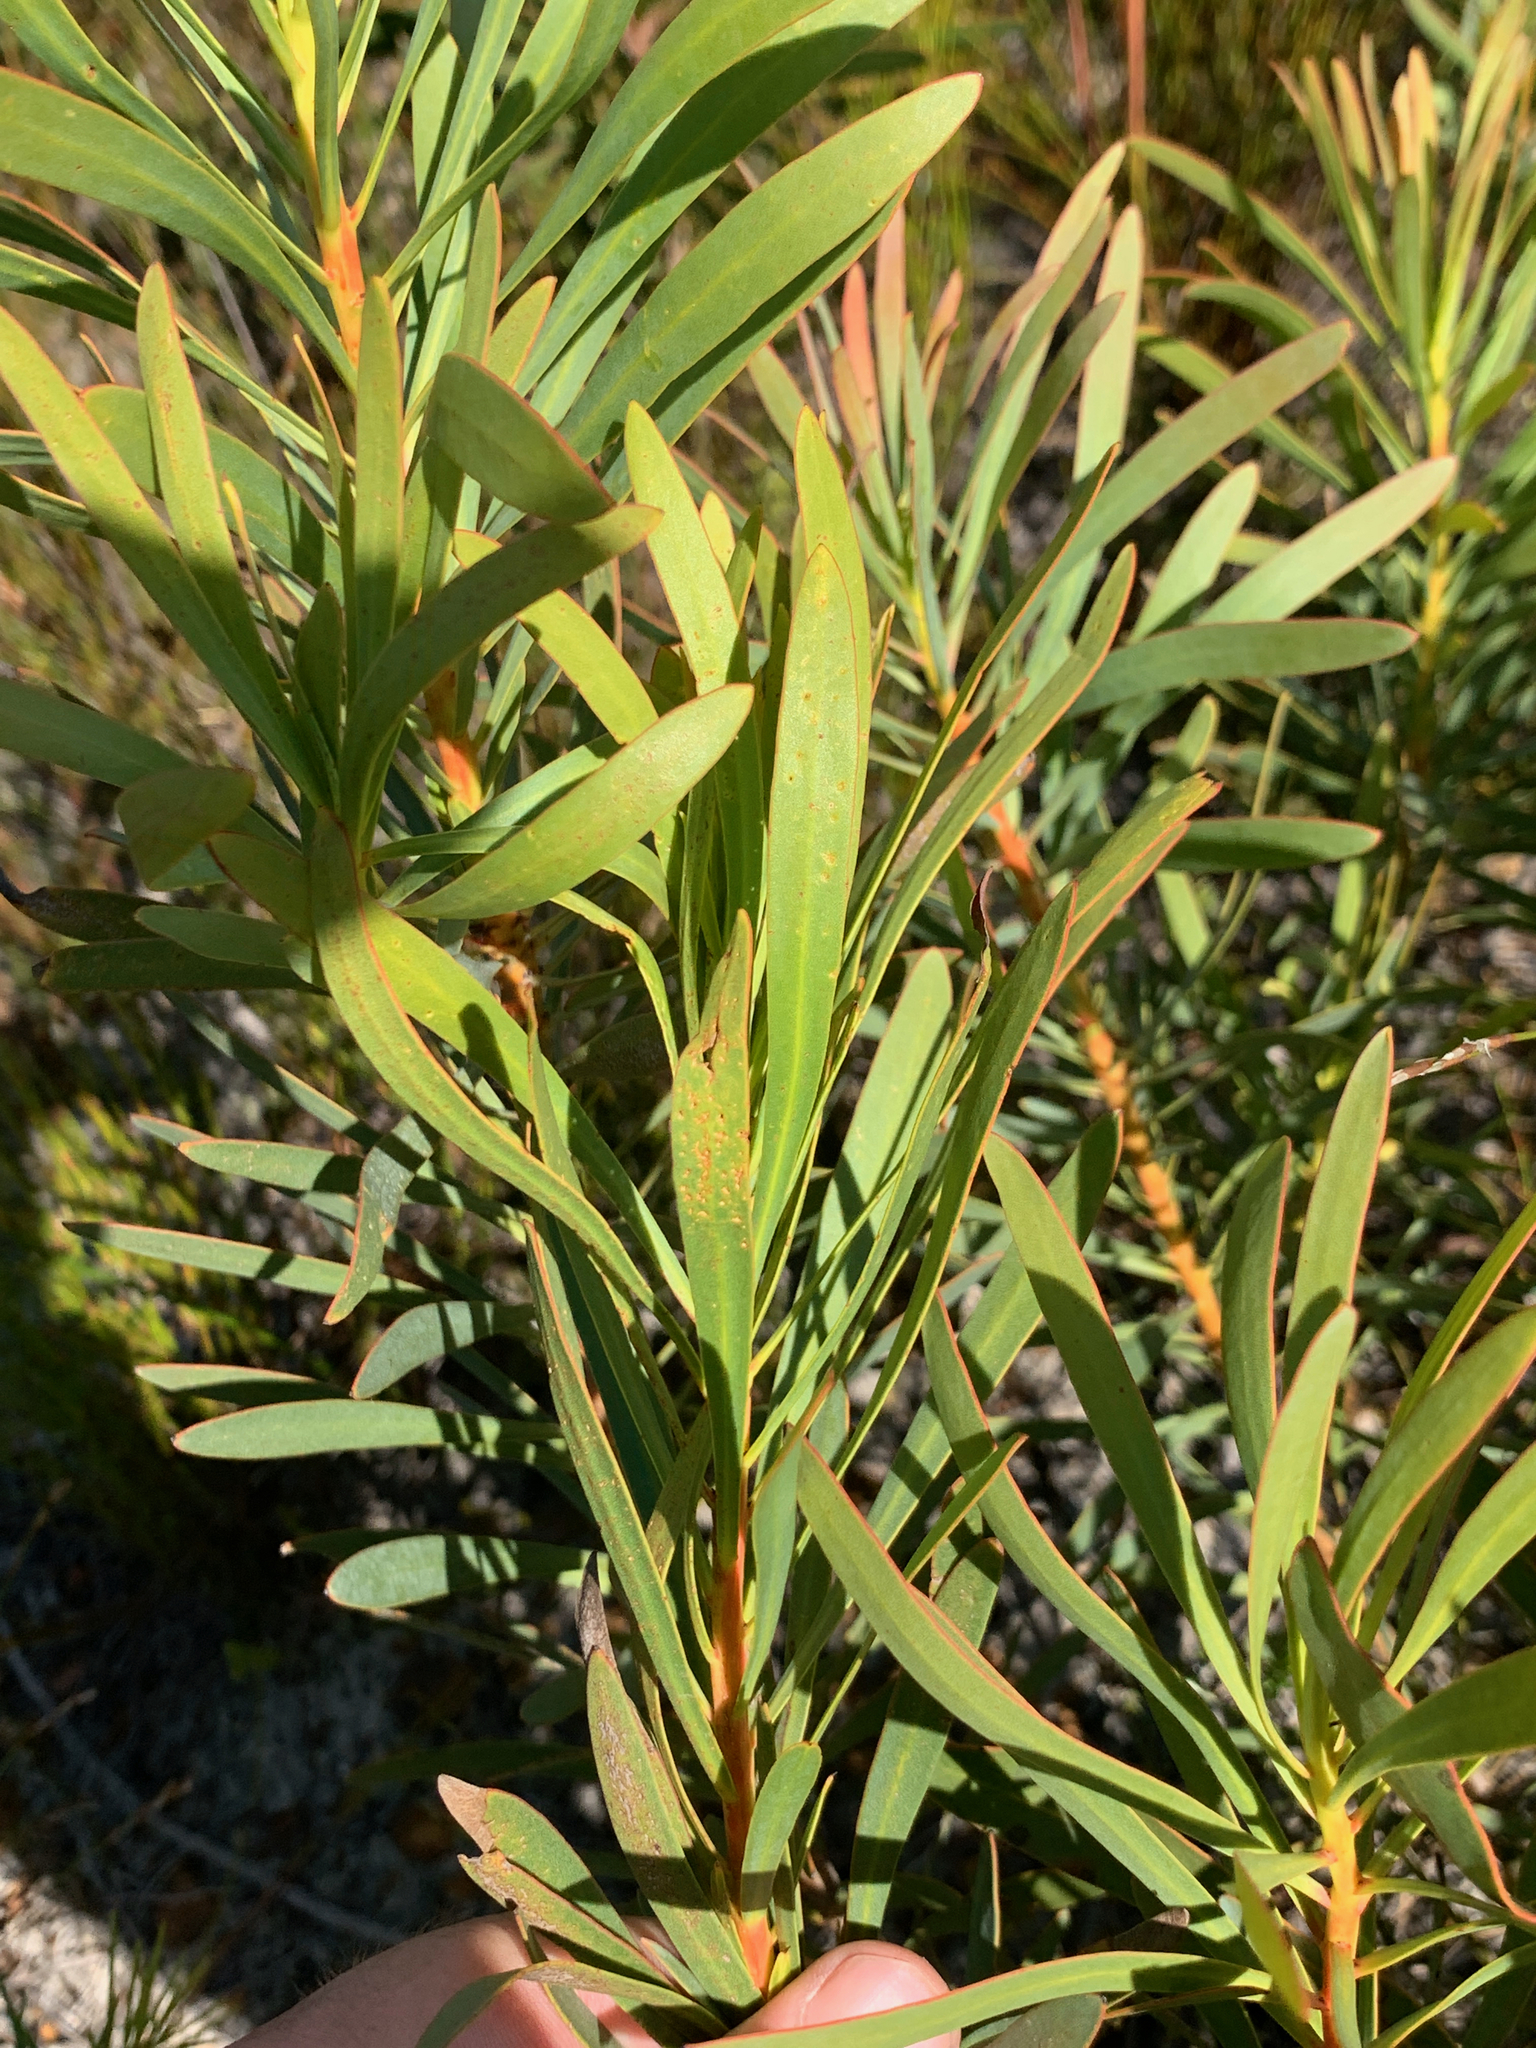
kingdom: Plantae
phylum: Tracheophyta
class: Magnoliopsida
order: Proteales
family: Proteaceae
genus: Protea
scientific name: Protea longifolia
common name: Long-leaf sugarbush
